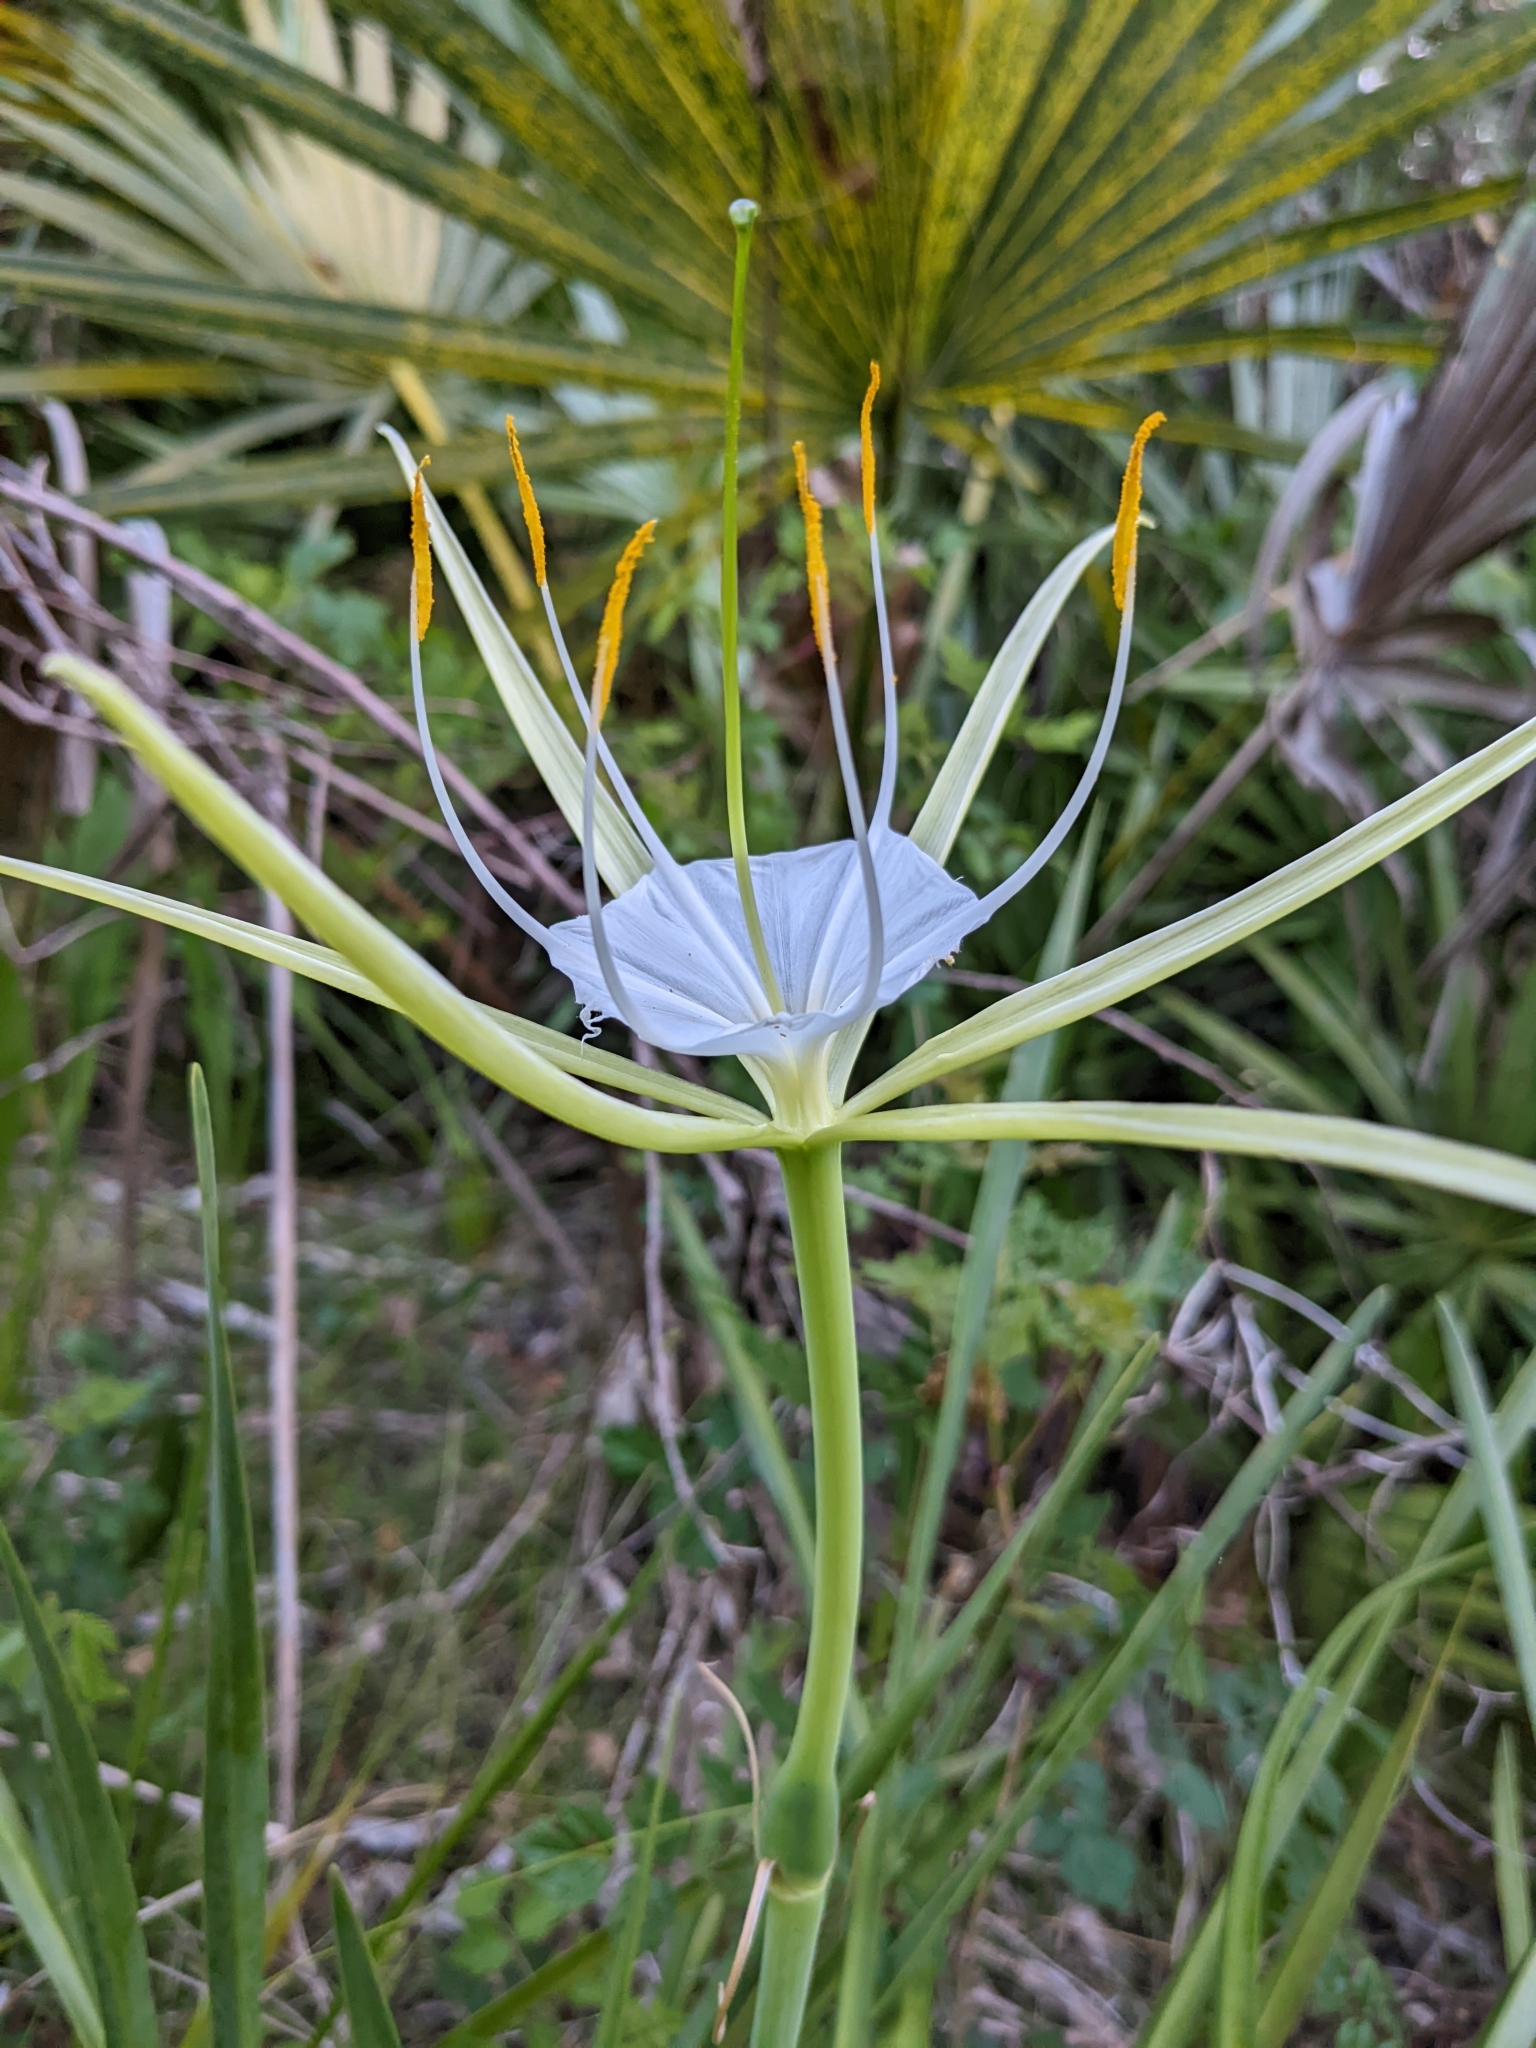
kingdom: Plantae
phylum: Tracheophyta
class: Liliopsida
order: Asparagales
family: Amaryllidaceae
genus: Hymenocallis
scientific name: Hymenocallis palmeri
